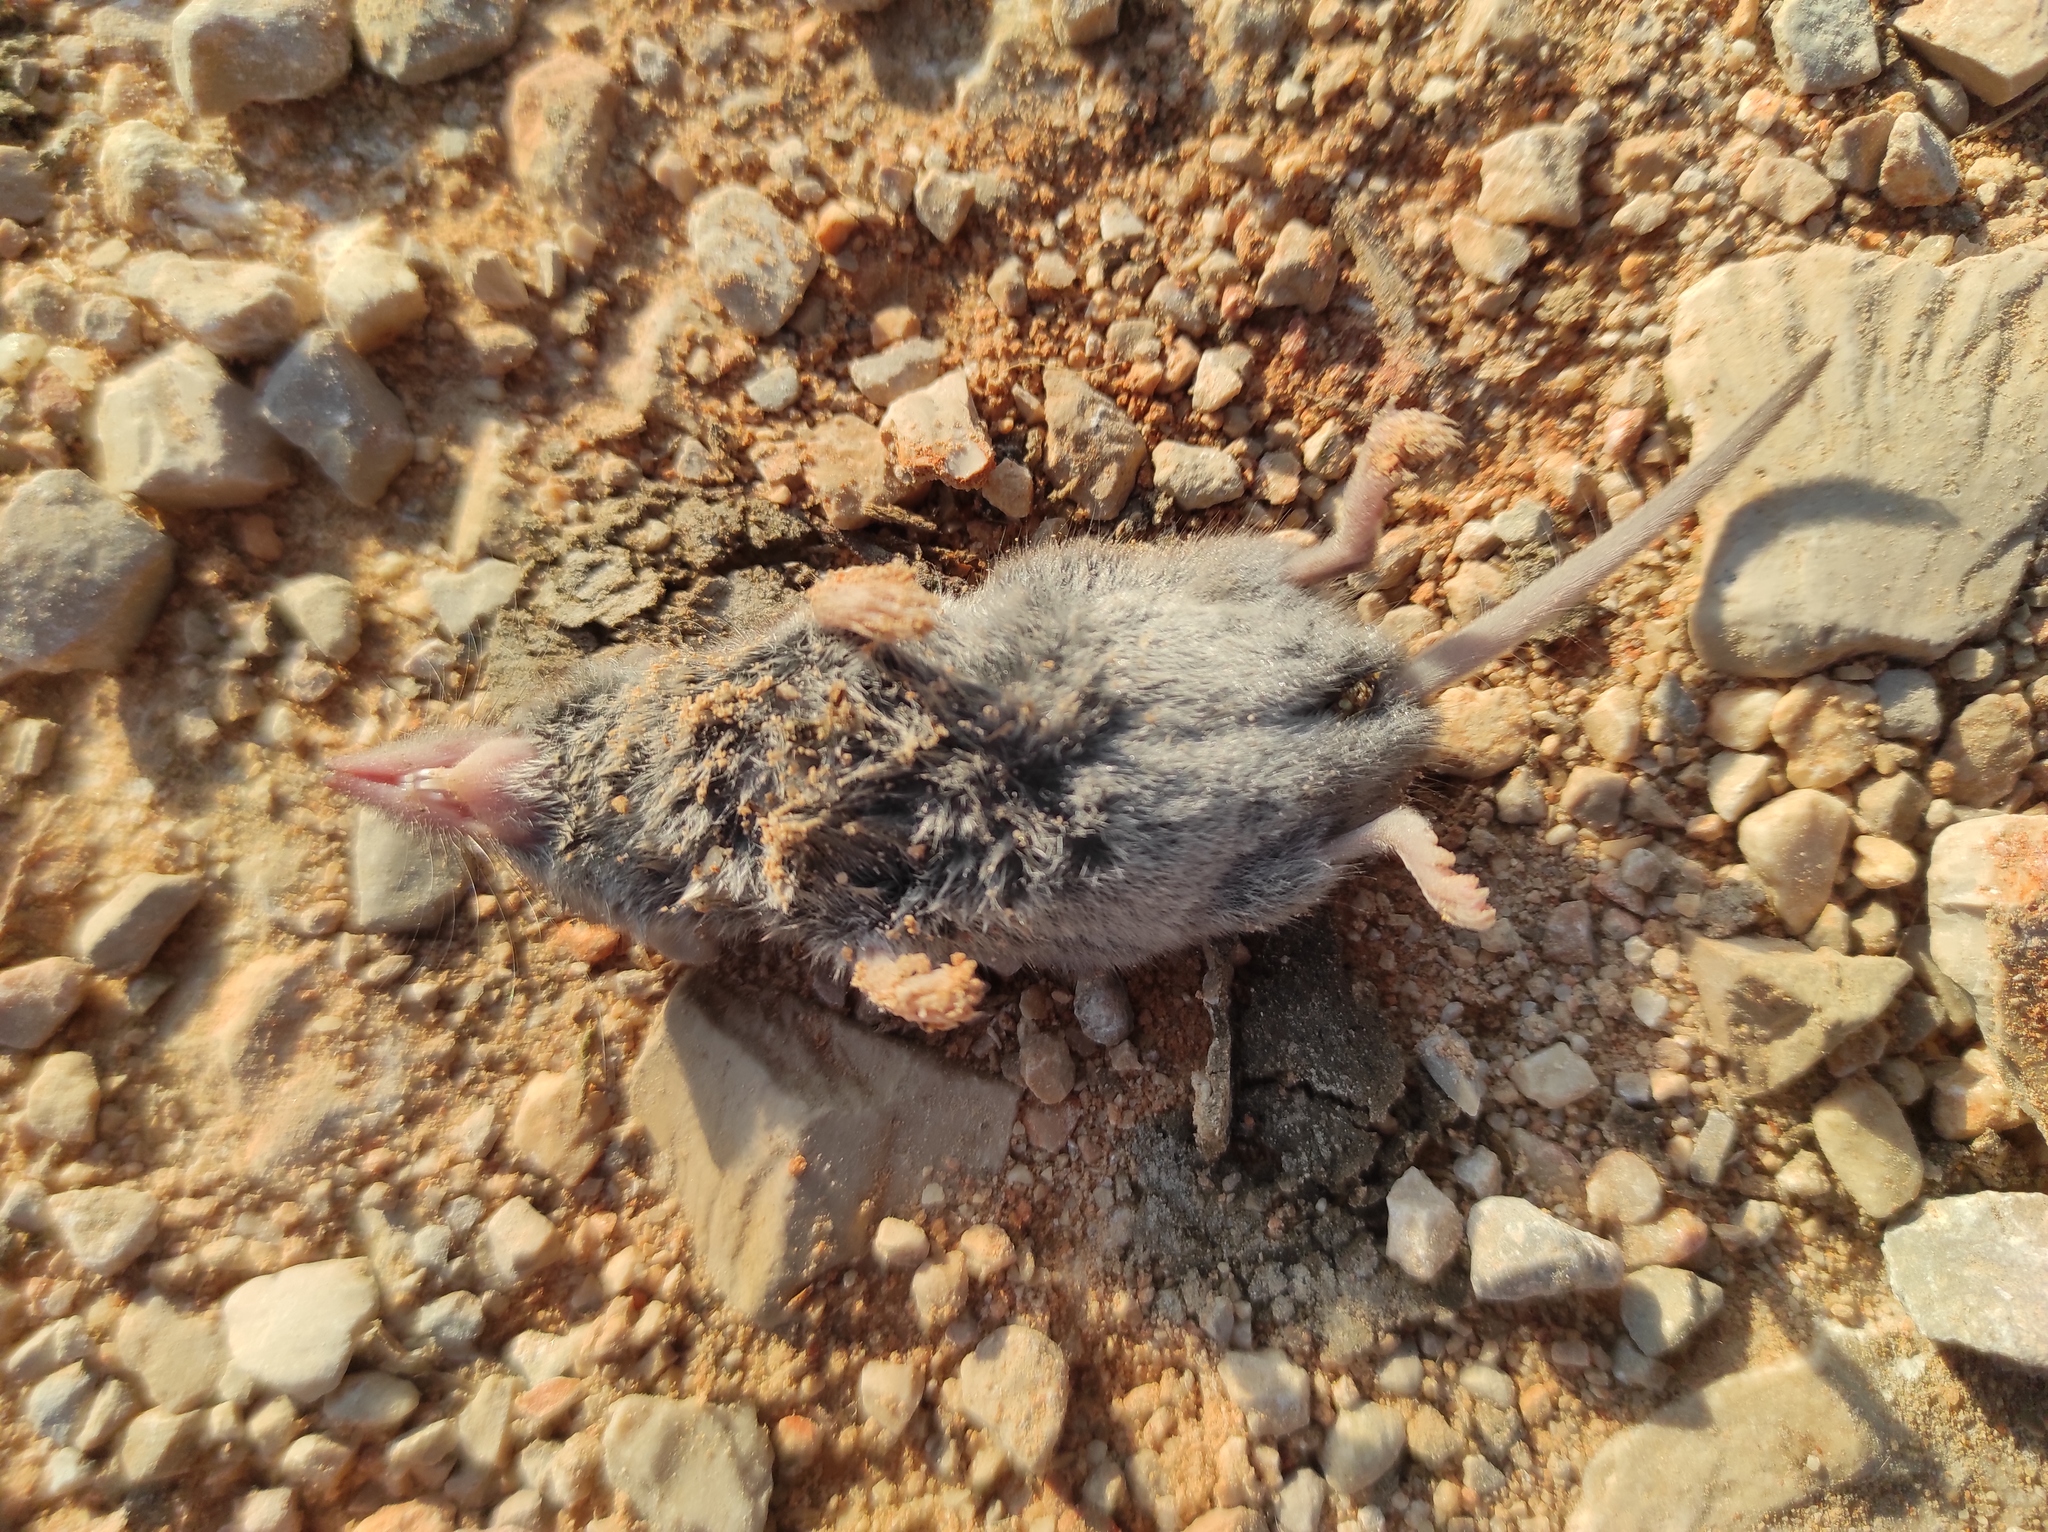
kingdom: Animalia
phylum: Chordata
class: Mammalia
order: Soricomorpha
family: Soricidae
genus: Crocidura
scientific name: Crocidura russula
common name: Greater white-toothed shrew
